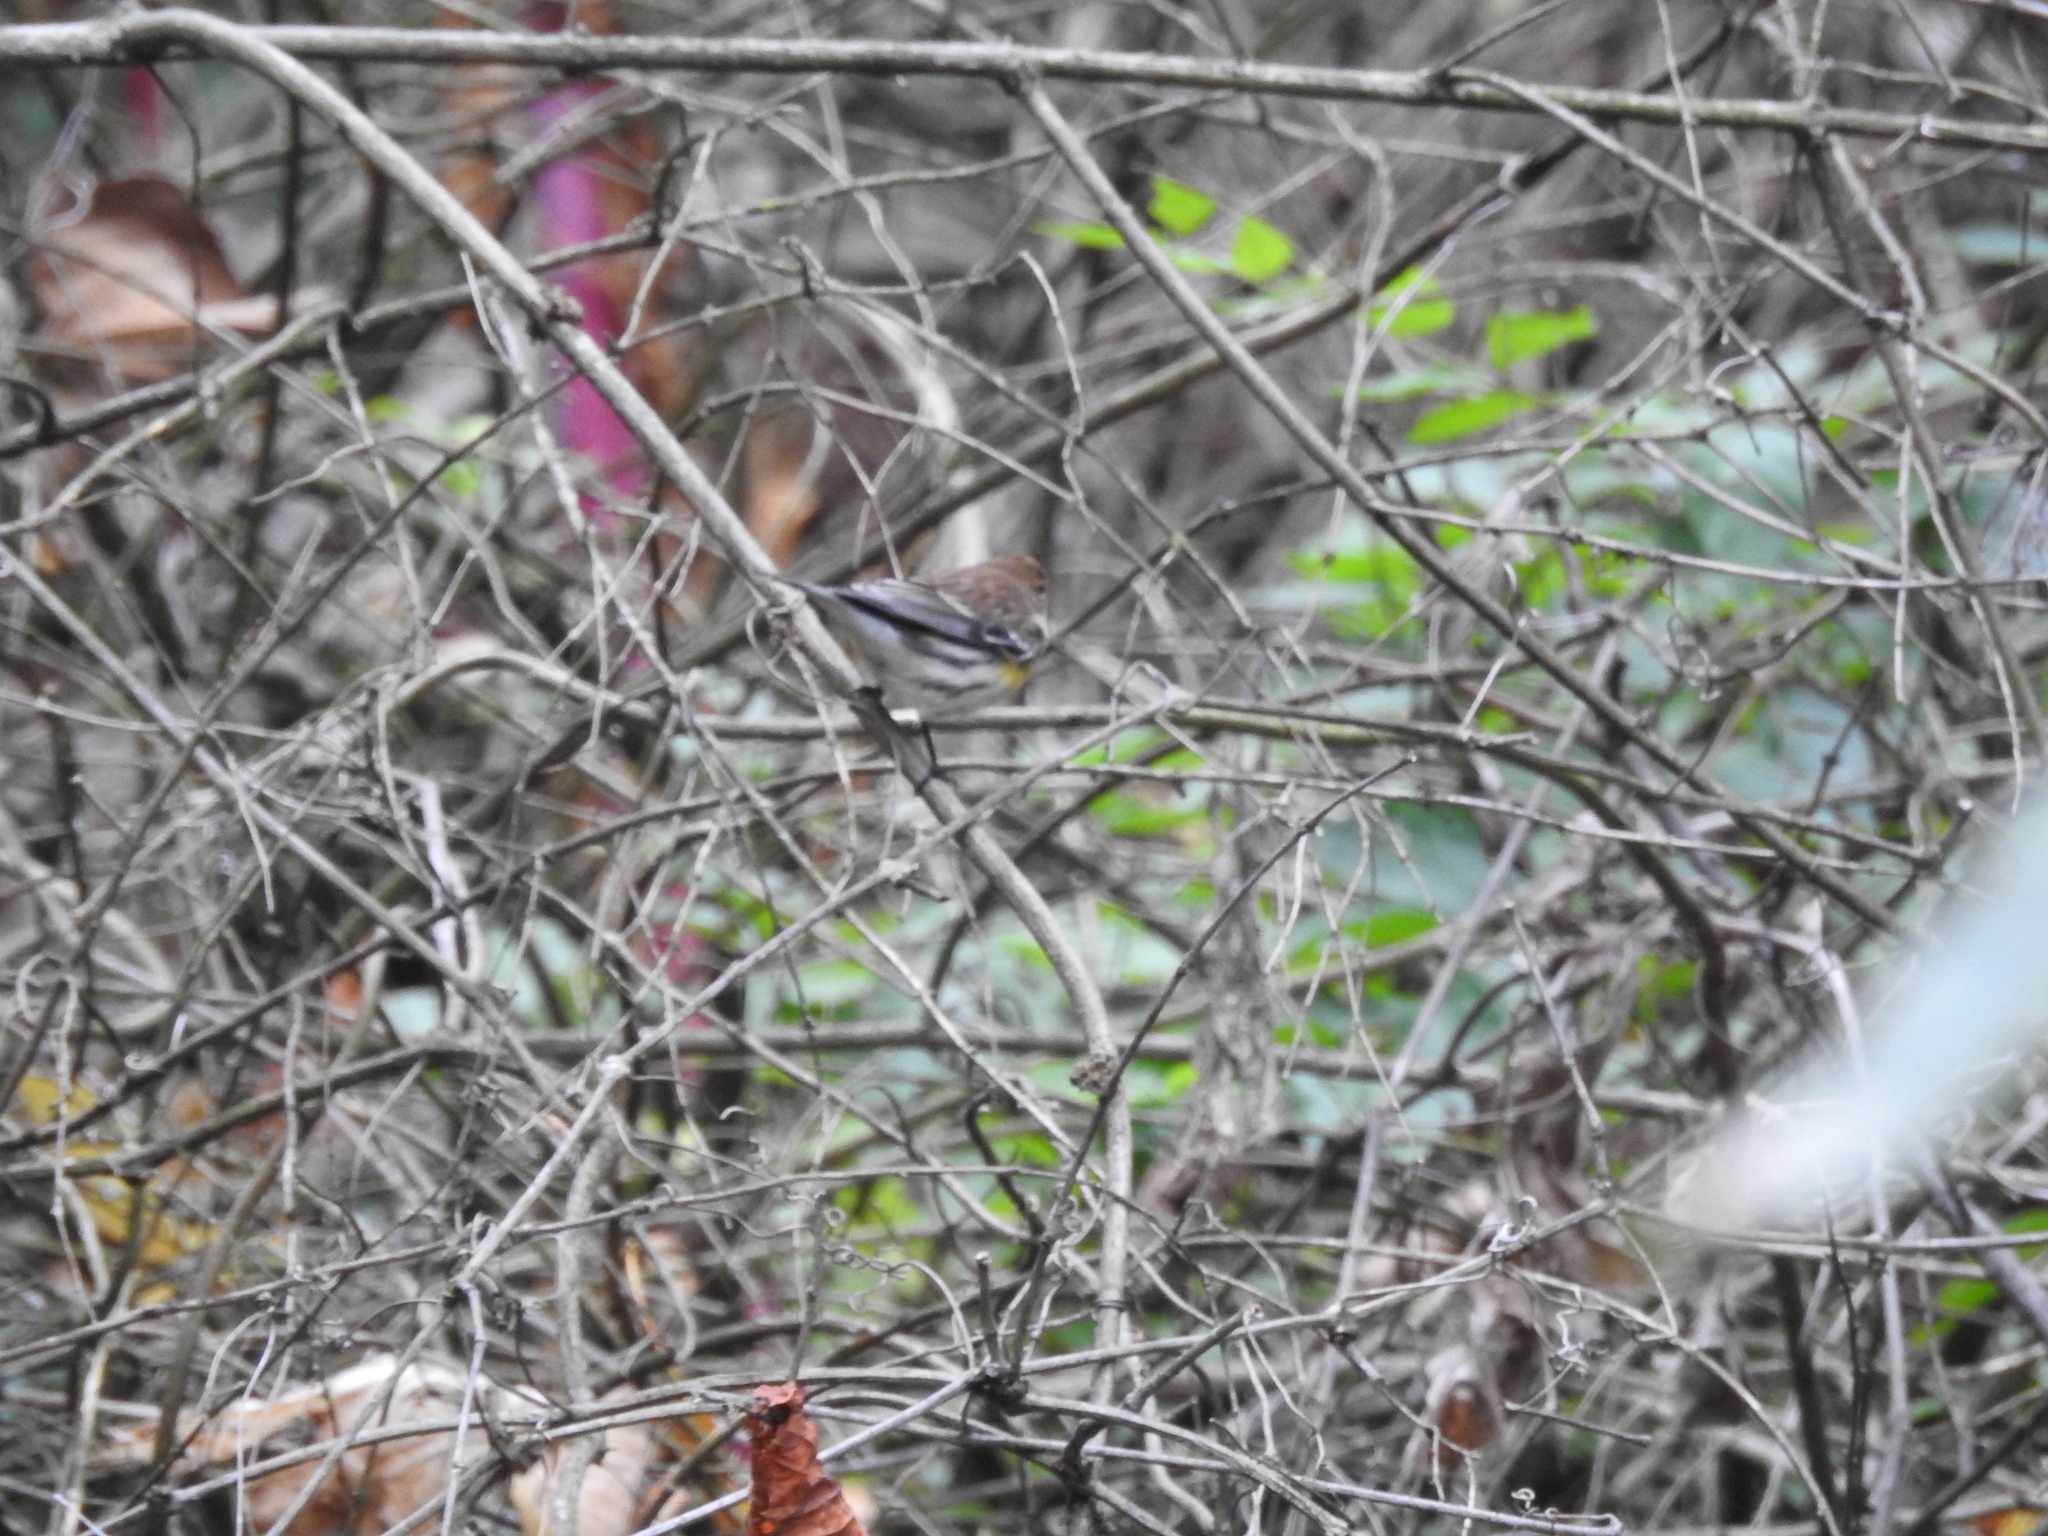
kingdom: Animalia
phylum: Chordata
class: Aves
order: Passeriformes
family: Parulidae
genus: Setophaga
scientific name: Setophaga coronata
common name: Myrtle warbler
